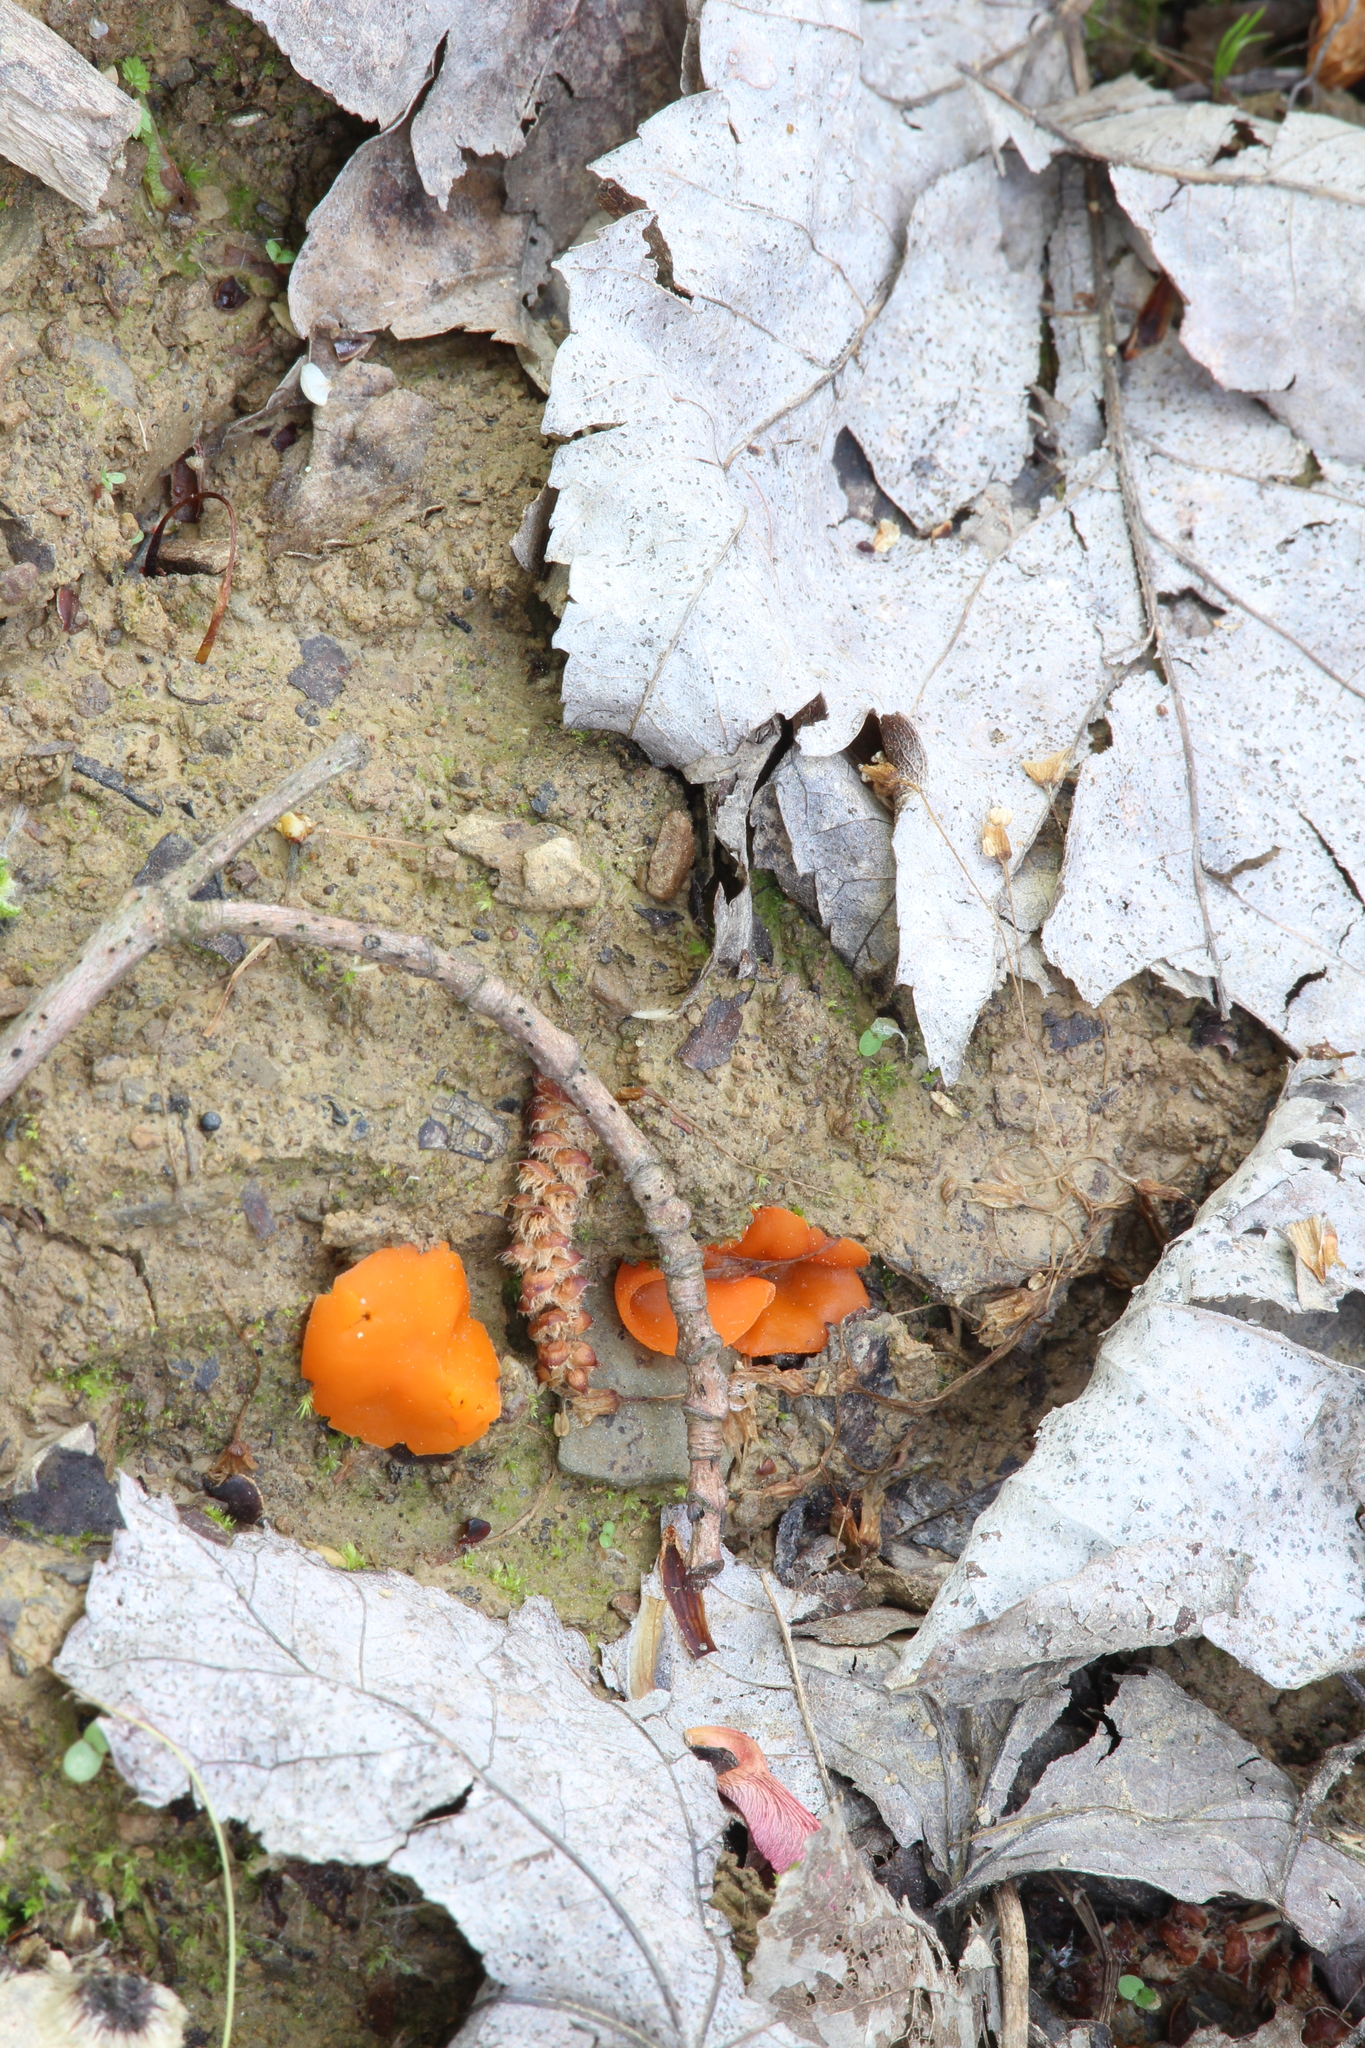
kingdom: Fungi
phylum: Ascomycota
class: Pezizomycetes
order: Pezizales
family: Pyronemataceae
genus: Aleuria
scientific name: Aleuria aurantia
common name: Orange peel fungus
